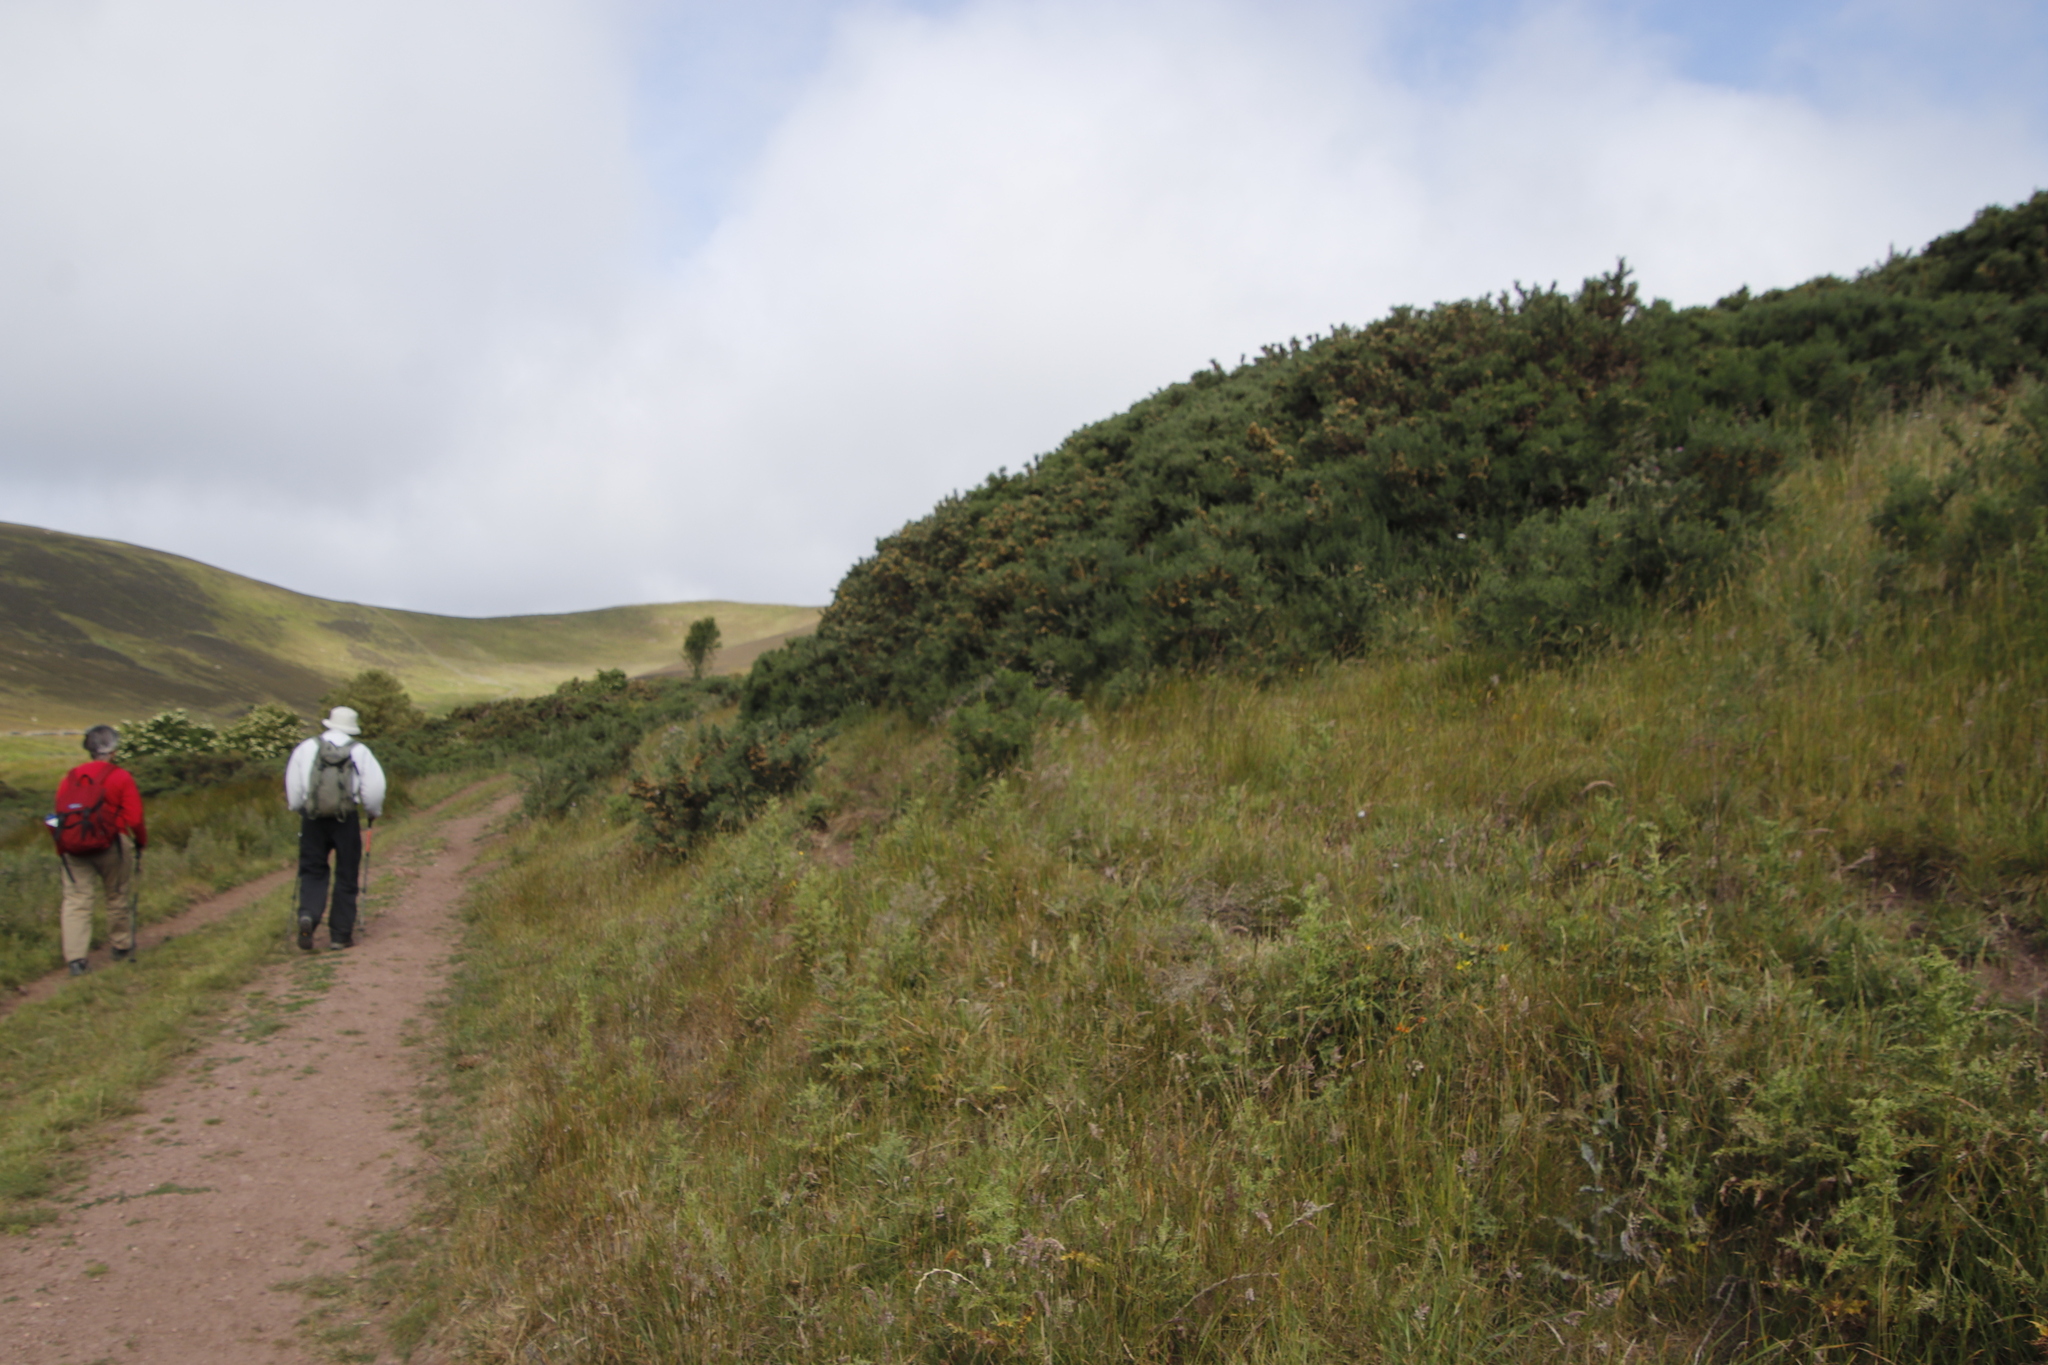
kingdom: Plantae
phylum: Tracheophyta
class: Magnoliopsida
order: Fabales
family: Fabaceae
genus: Ulex
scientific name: Ulex europaeus
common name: Common gorse
